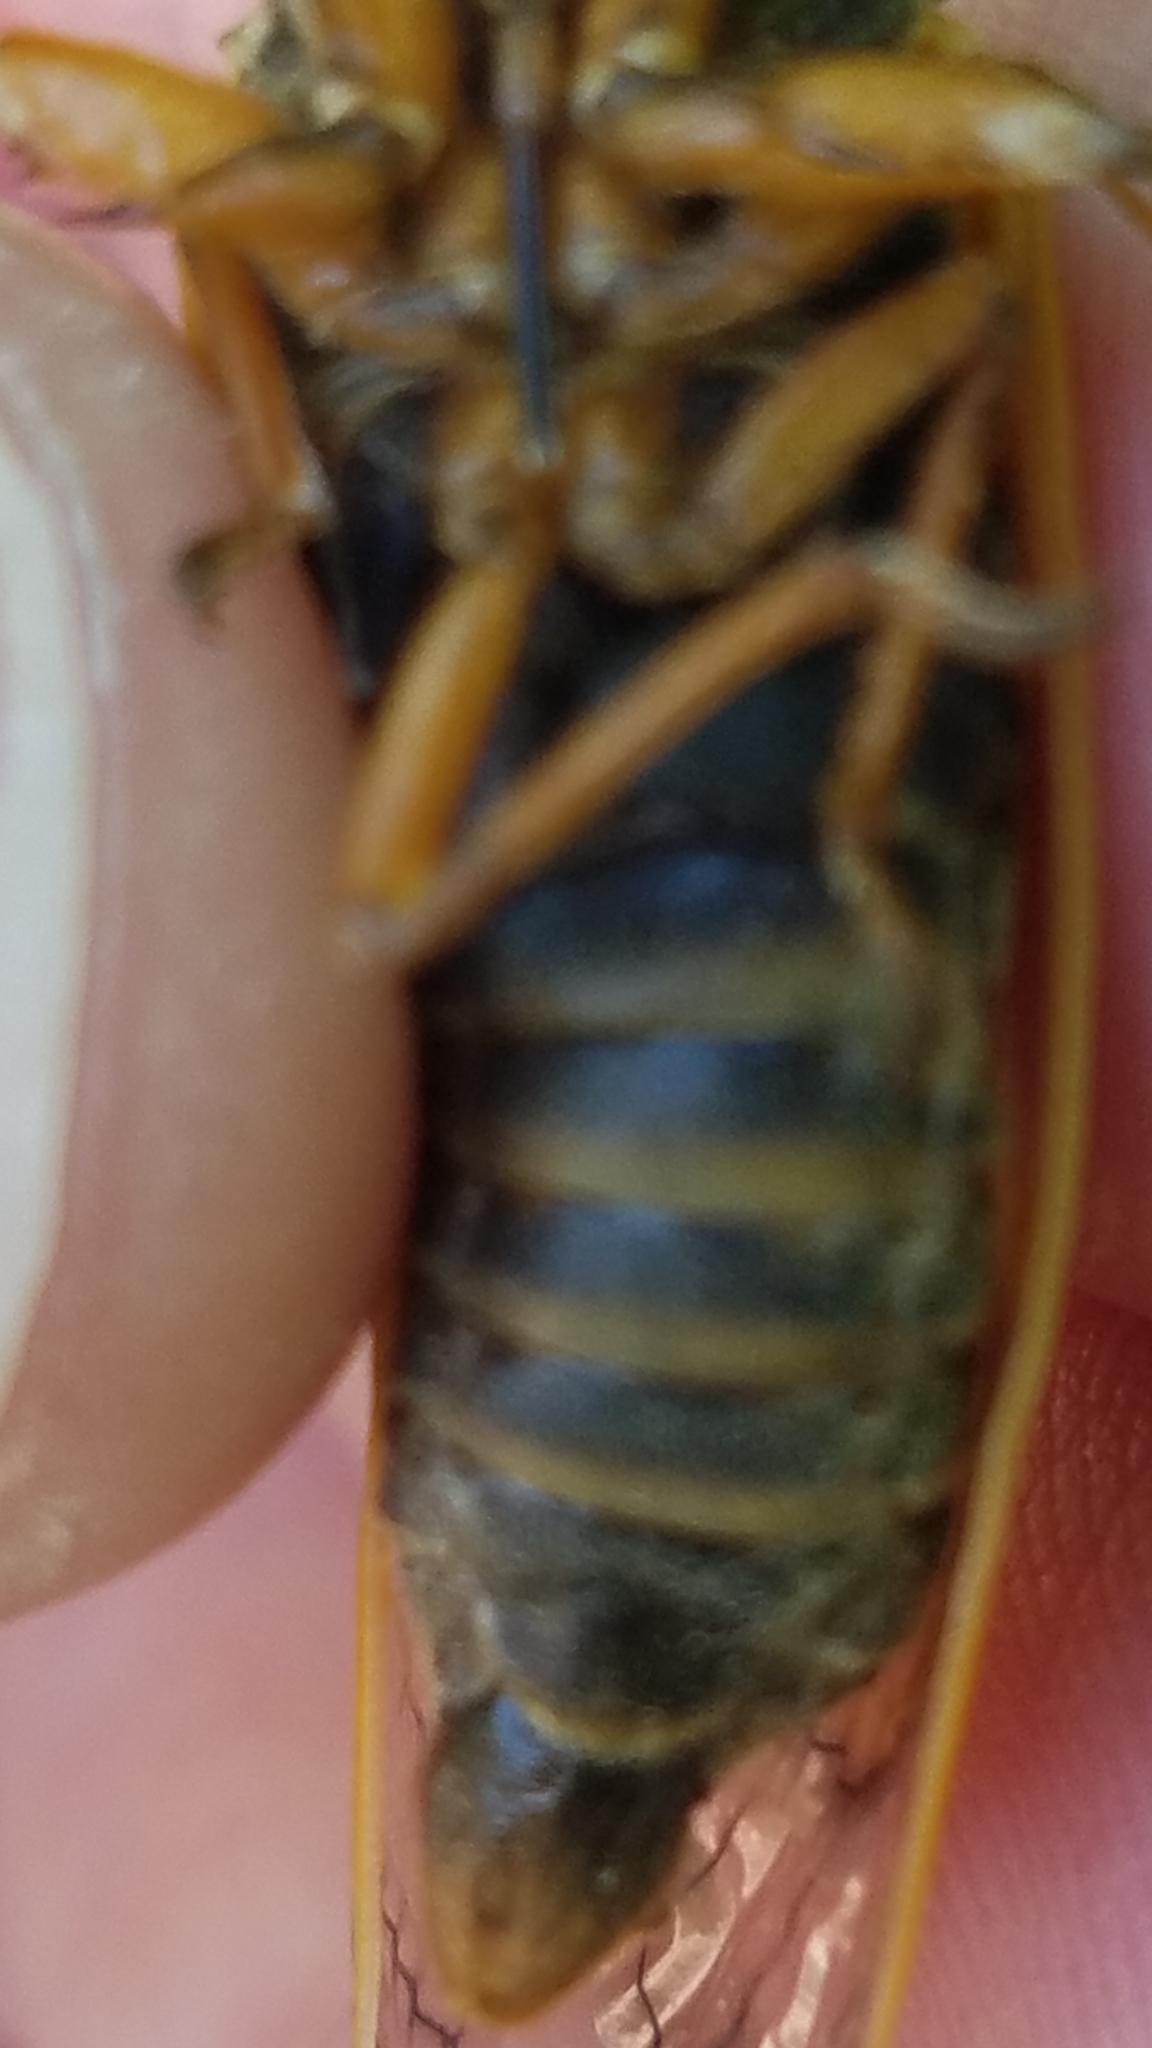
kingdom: Animalia
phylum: Arthropoda
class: Insecta
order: Hemiptera
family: Cicadidae
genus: Magicicada
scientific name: Magicicada cassini
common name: Cassin's 17-year cicada
